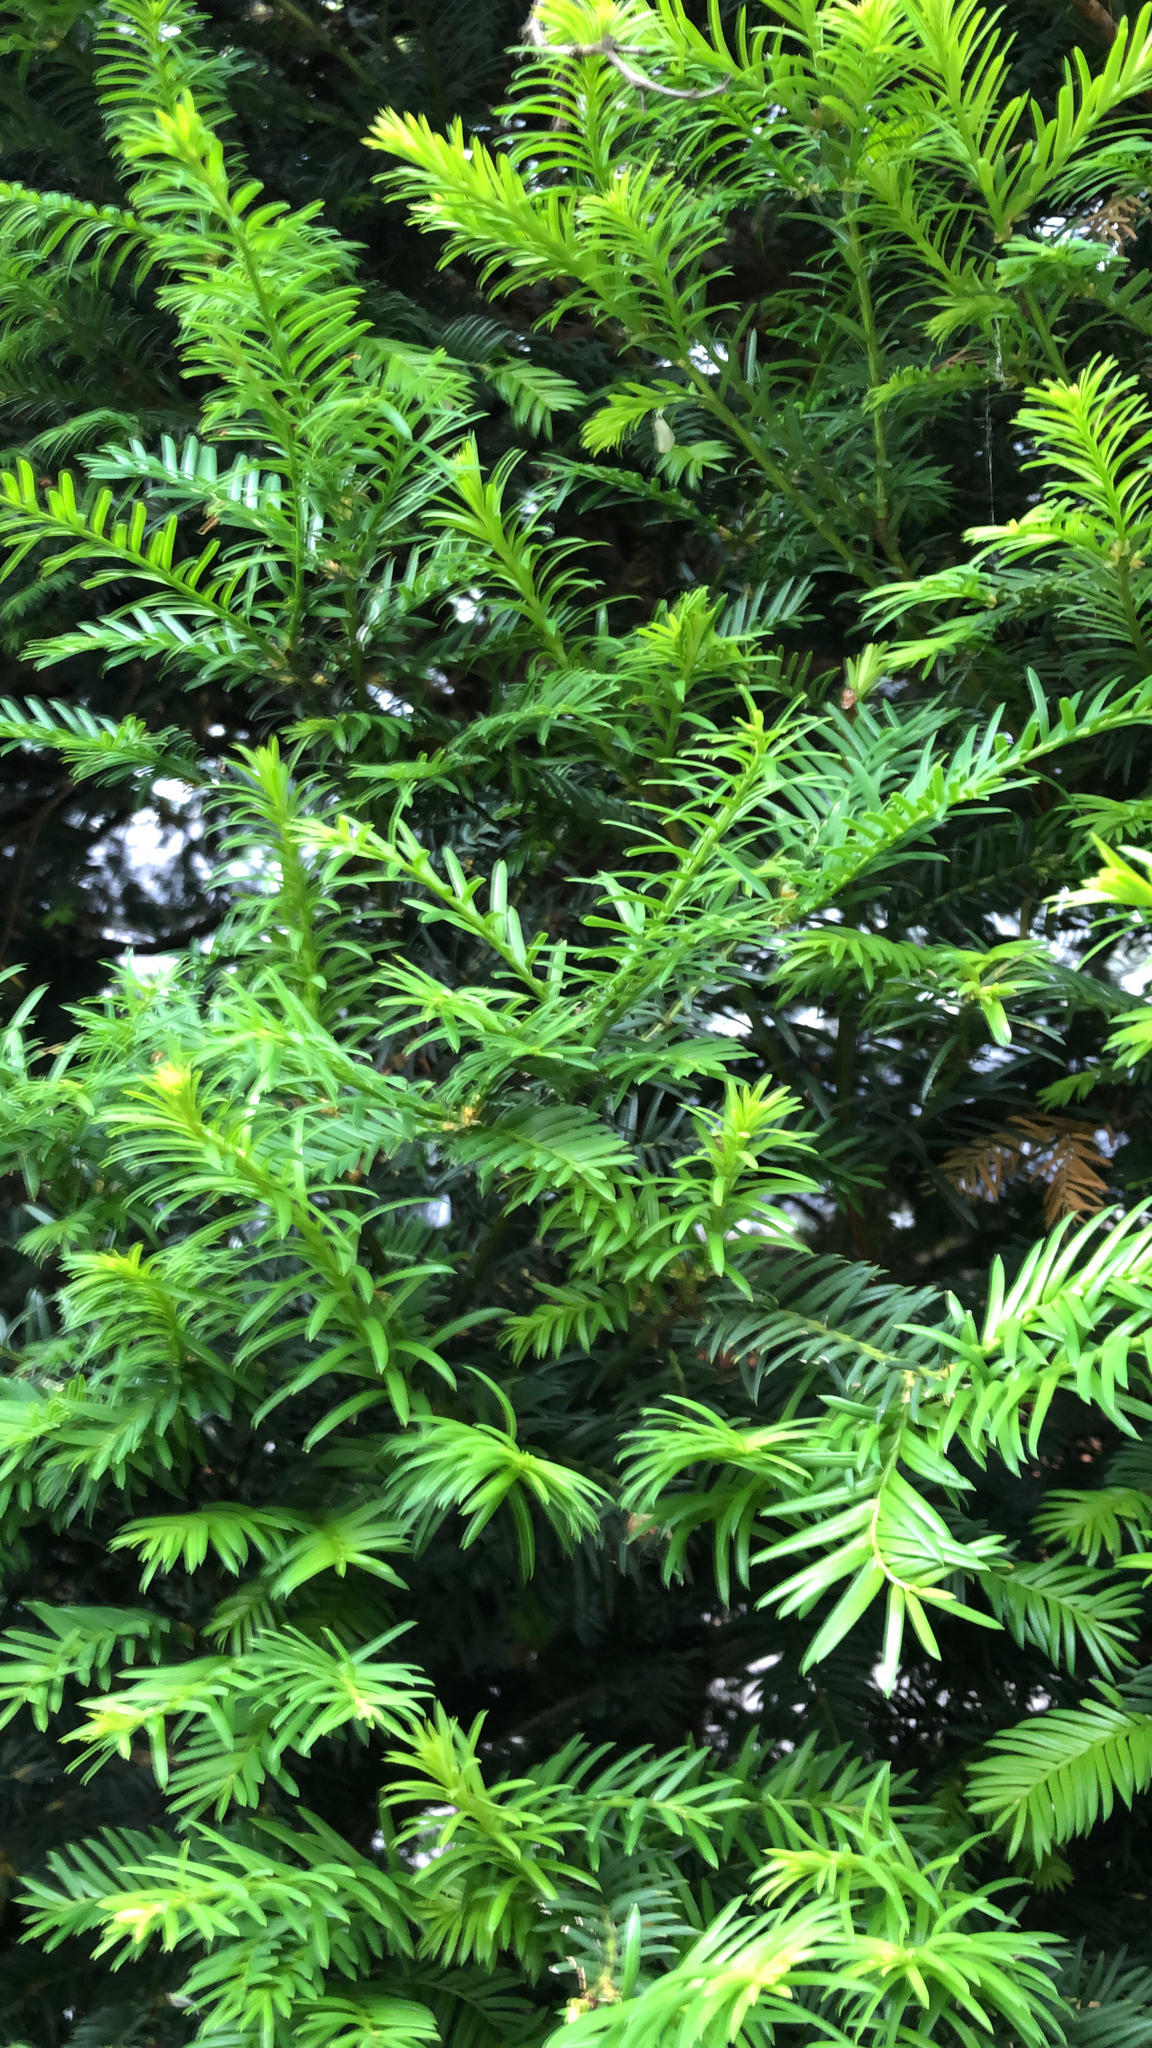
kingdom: Plantae
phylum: Tracheophyta
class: Pinopsida
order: Pinales
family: Taxaceae
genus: Taxus
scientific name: Taxus baccata
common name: Yew
